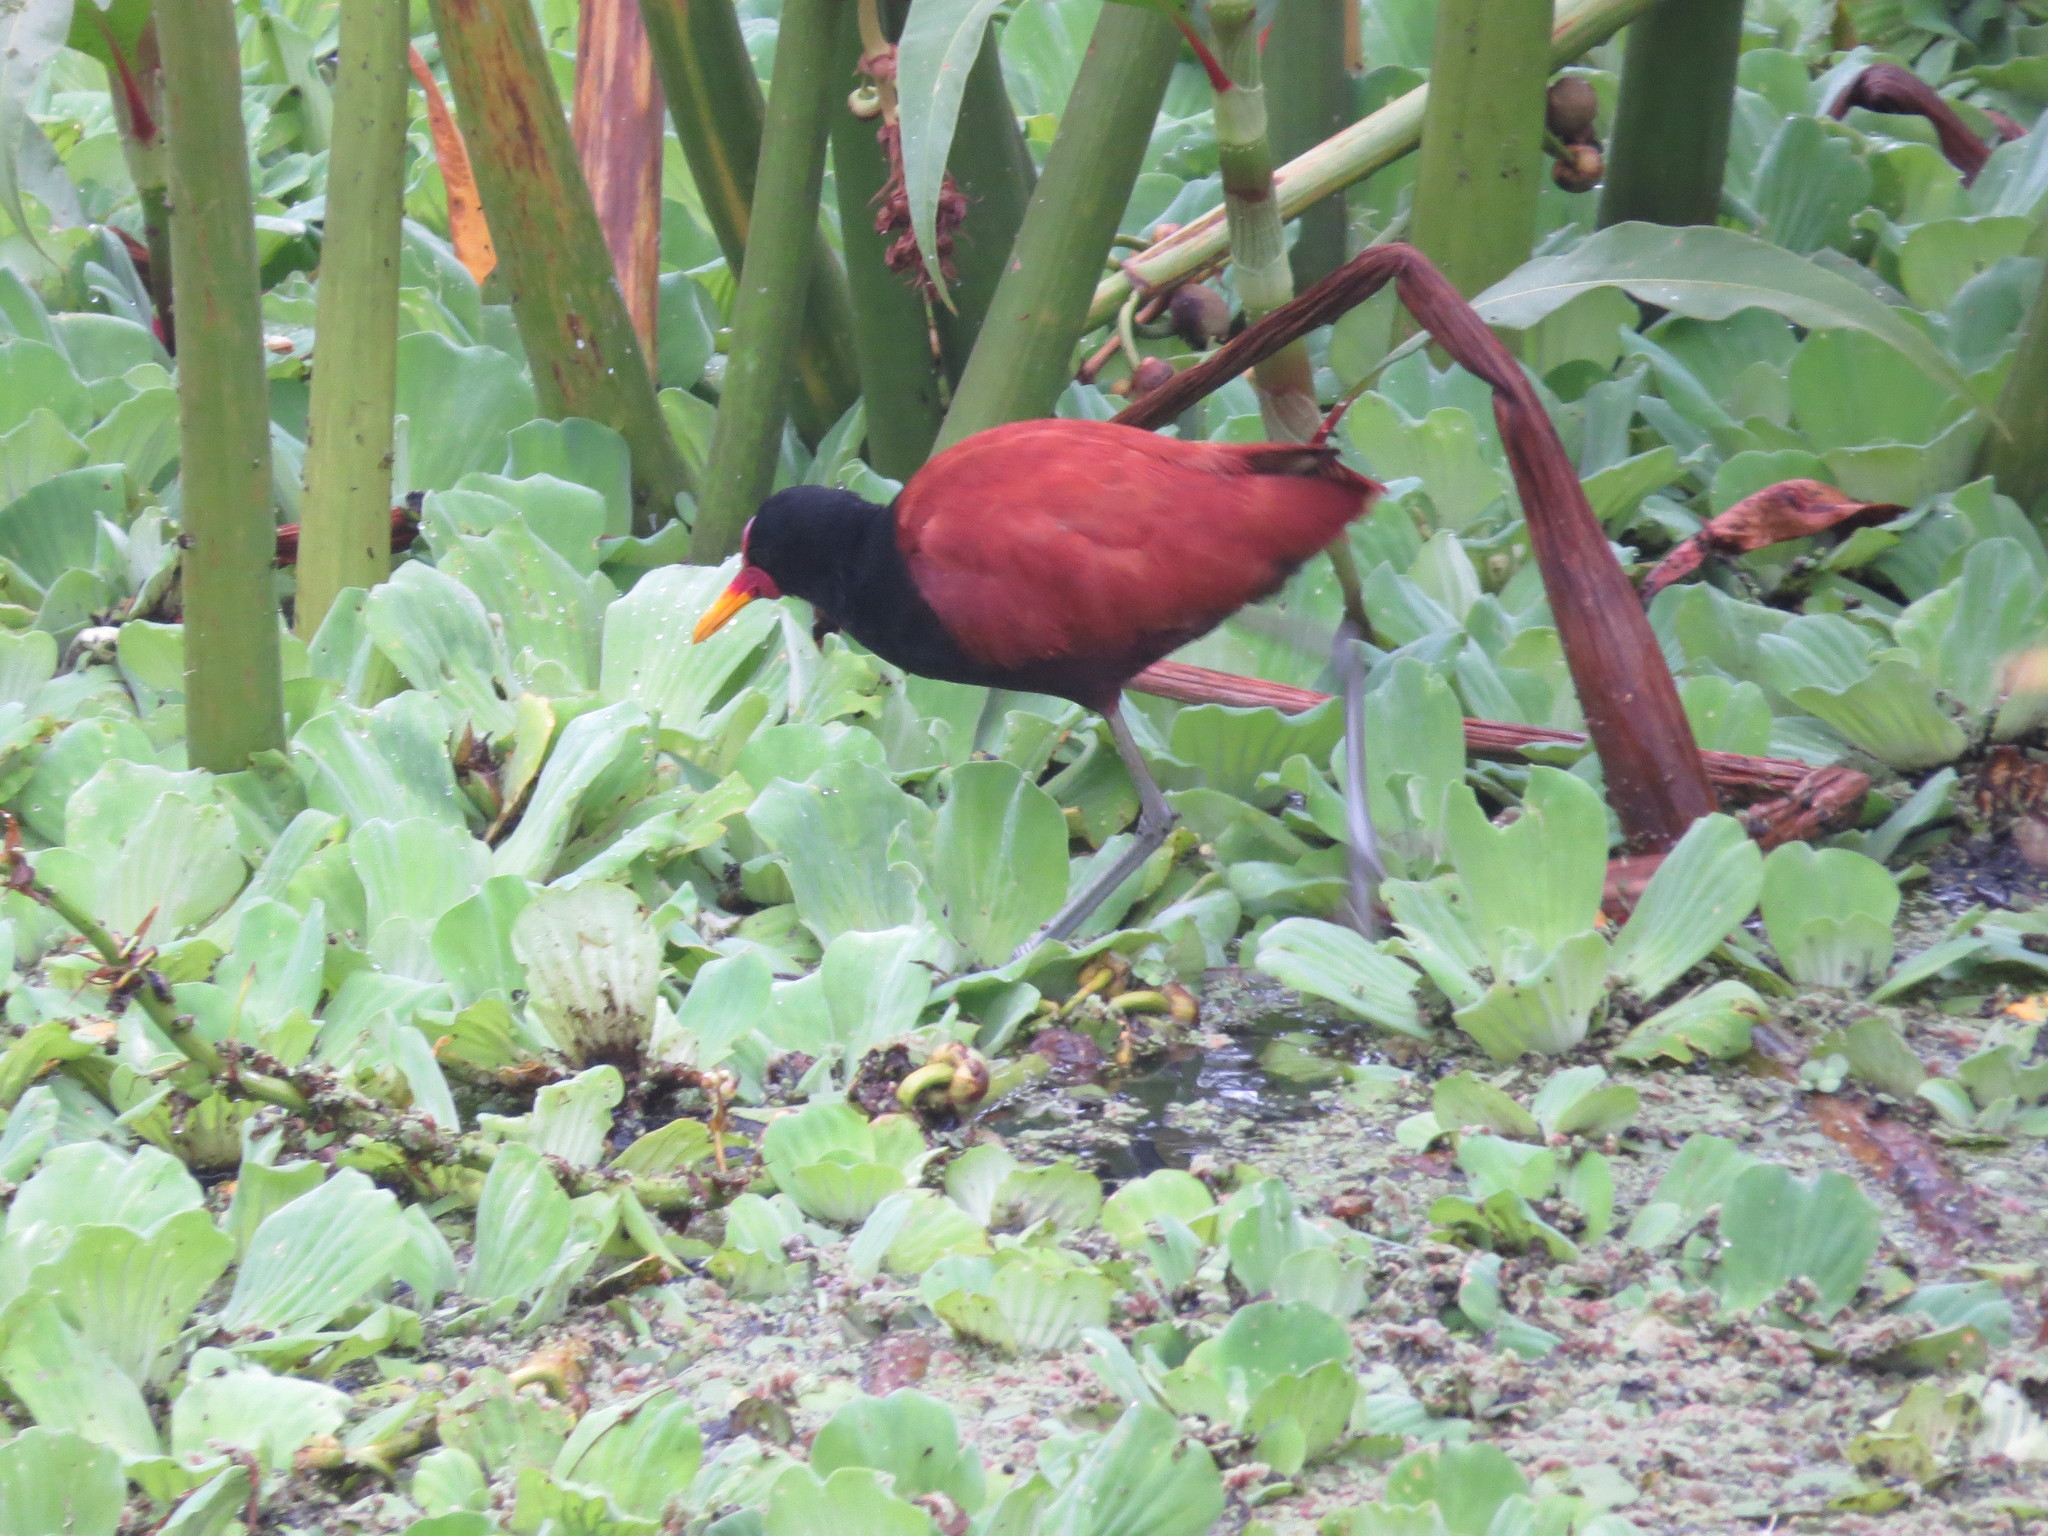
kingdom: Animalia
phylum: Chordata
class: Aves
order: Charadriiformes
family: Jacanidae
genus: Jacana
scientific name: Jacana jacana
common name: Wattled jacana
